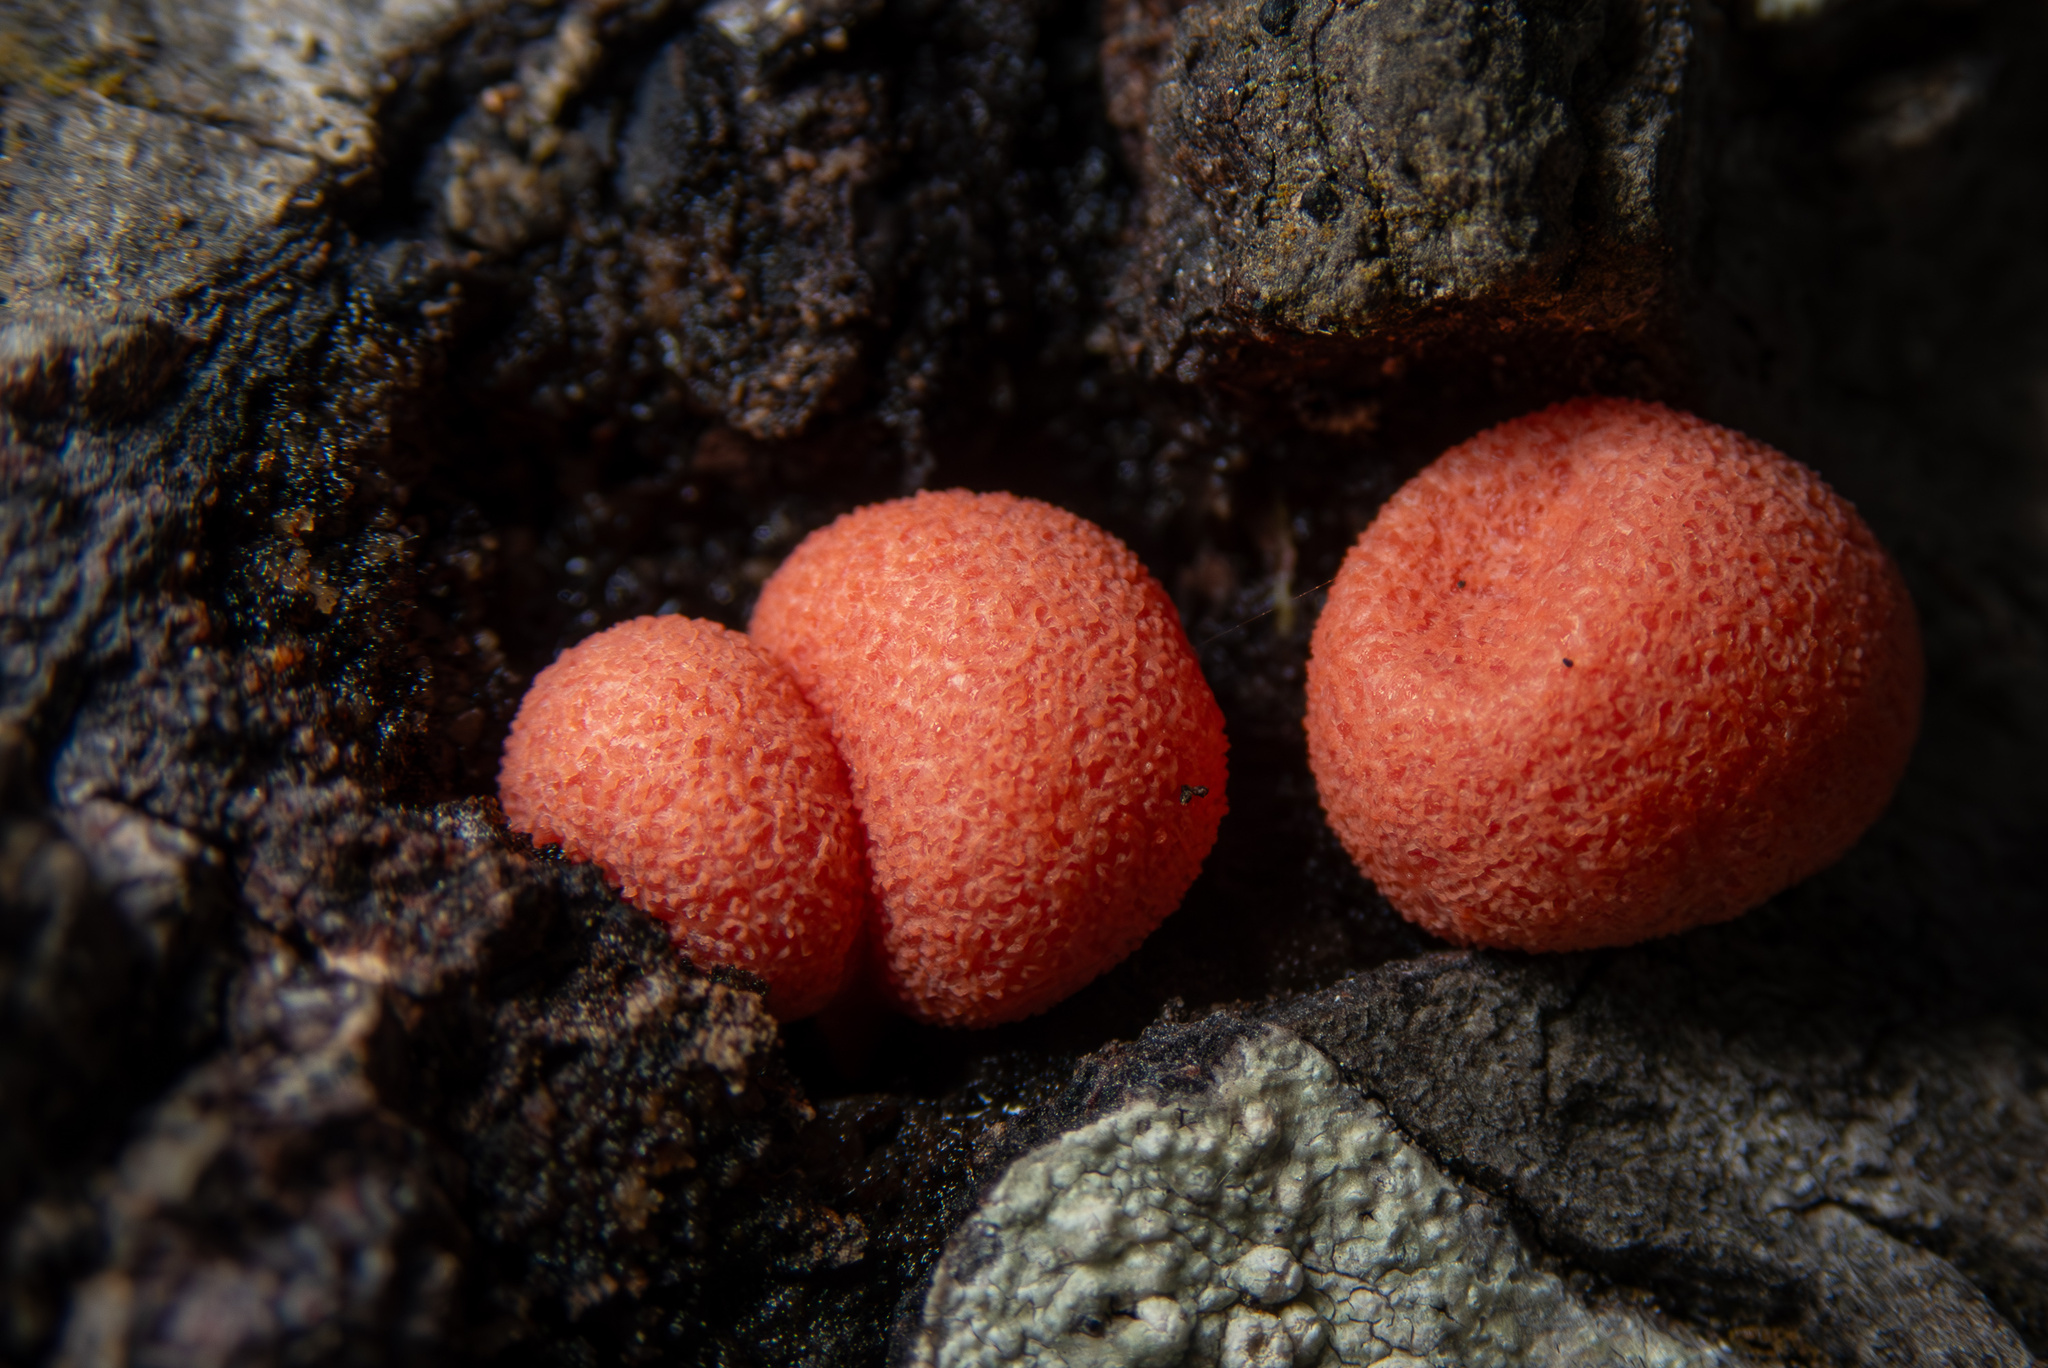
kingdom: Protozoa
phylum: Mycetozoa
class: Myxomycetes
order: Cribrariales
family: Tubiferaceae
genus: Lycogala
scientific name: Lycogala epidendrum
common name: Wolf's milk
